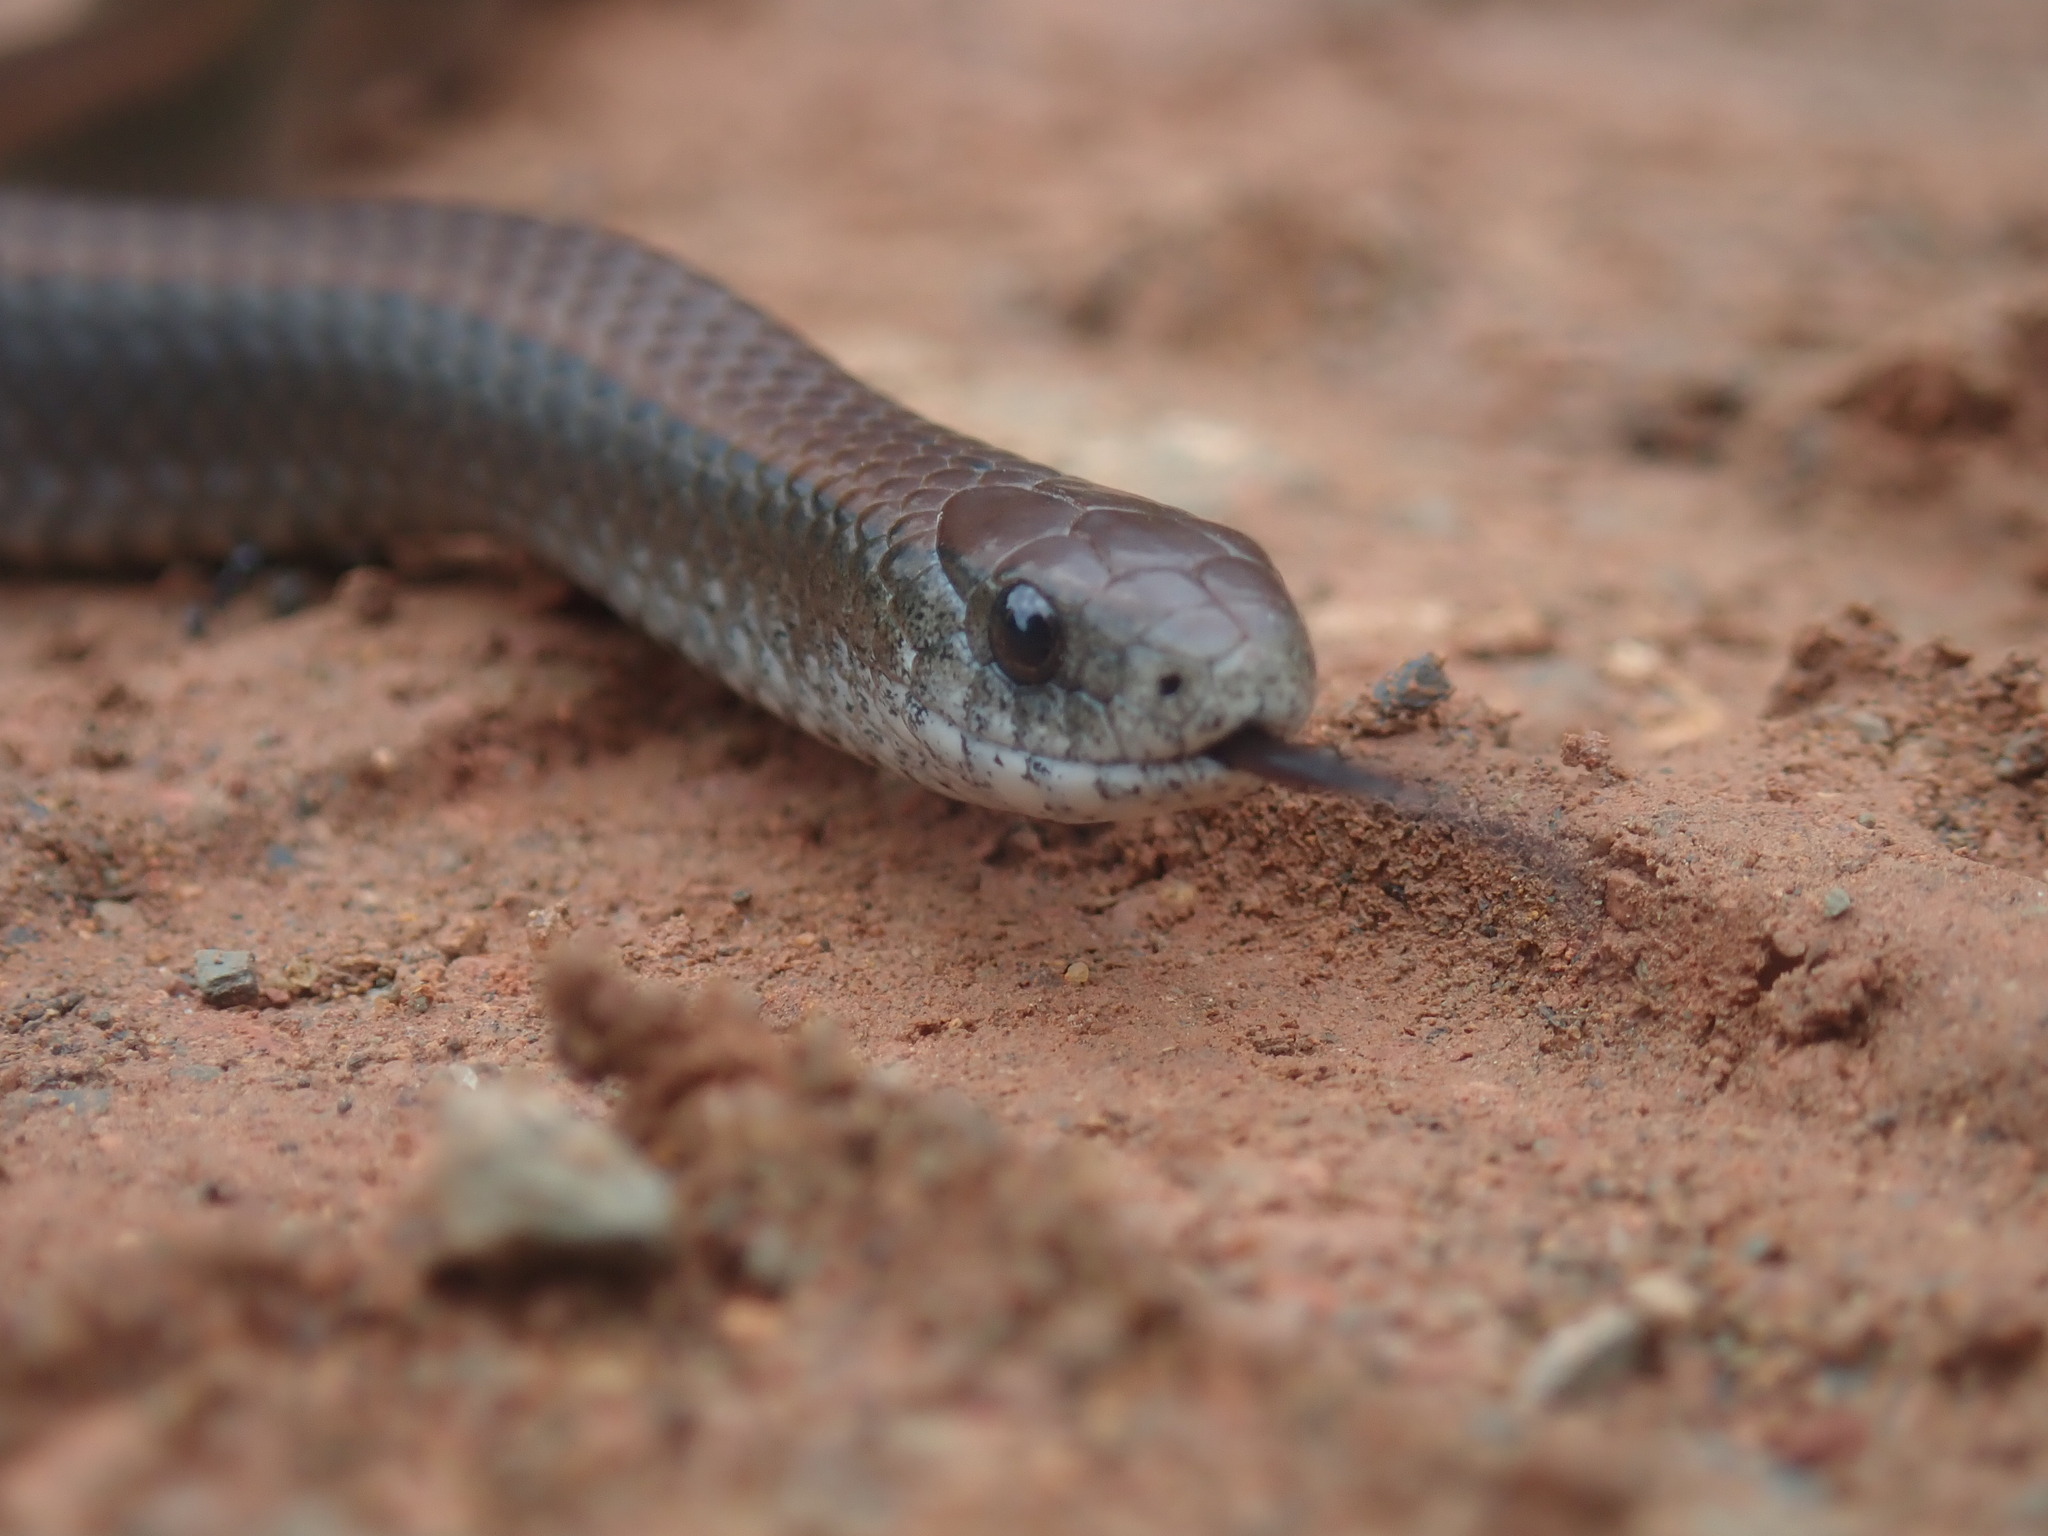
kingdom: Animalia
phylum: Chordata
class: Squamata
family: Pseudoxyrhophiidae
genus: Duberria
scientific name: Duberria lutrix
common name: Common slug eater
